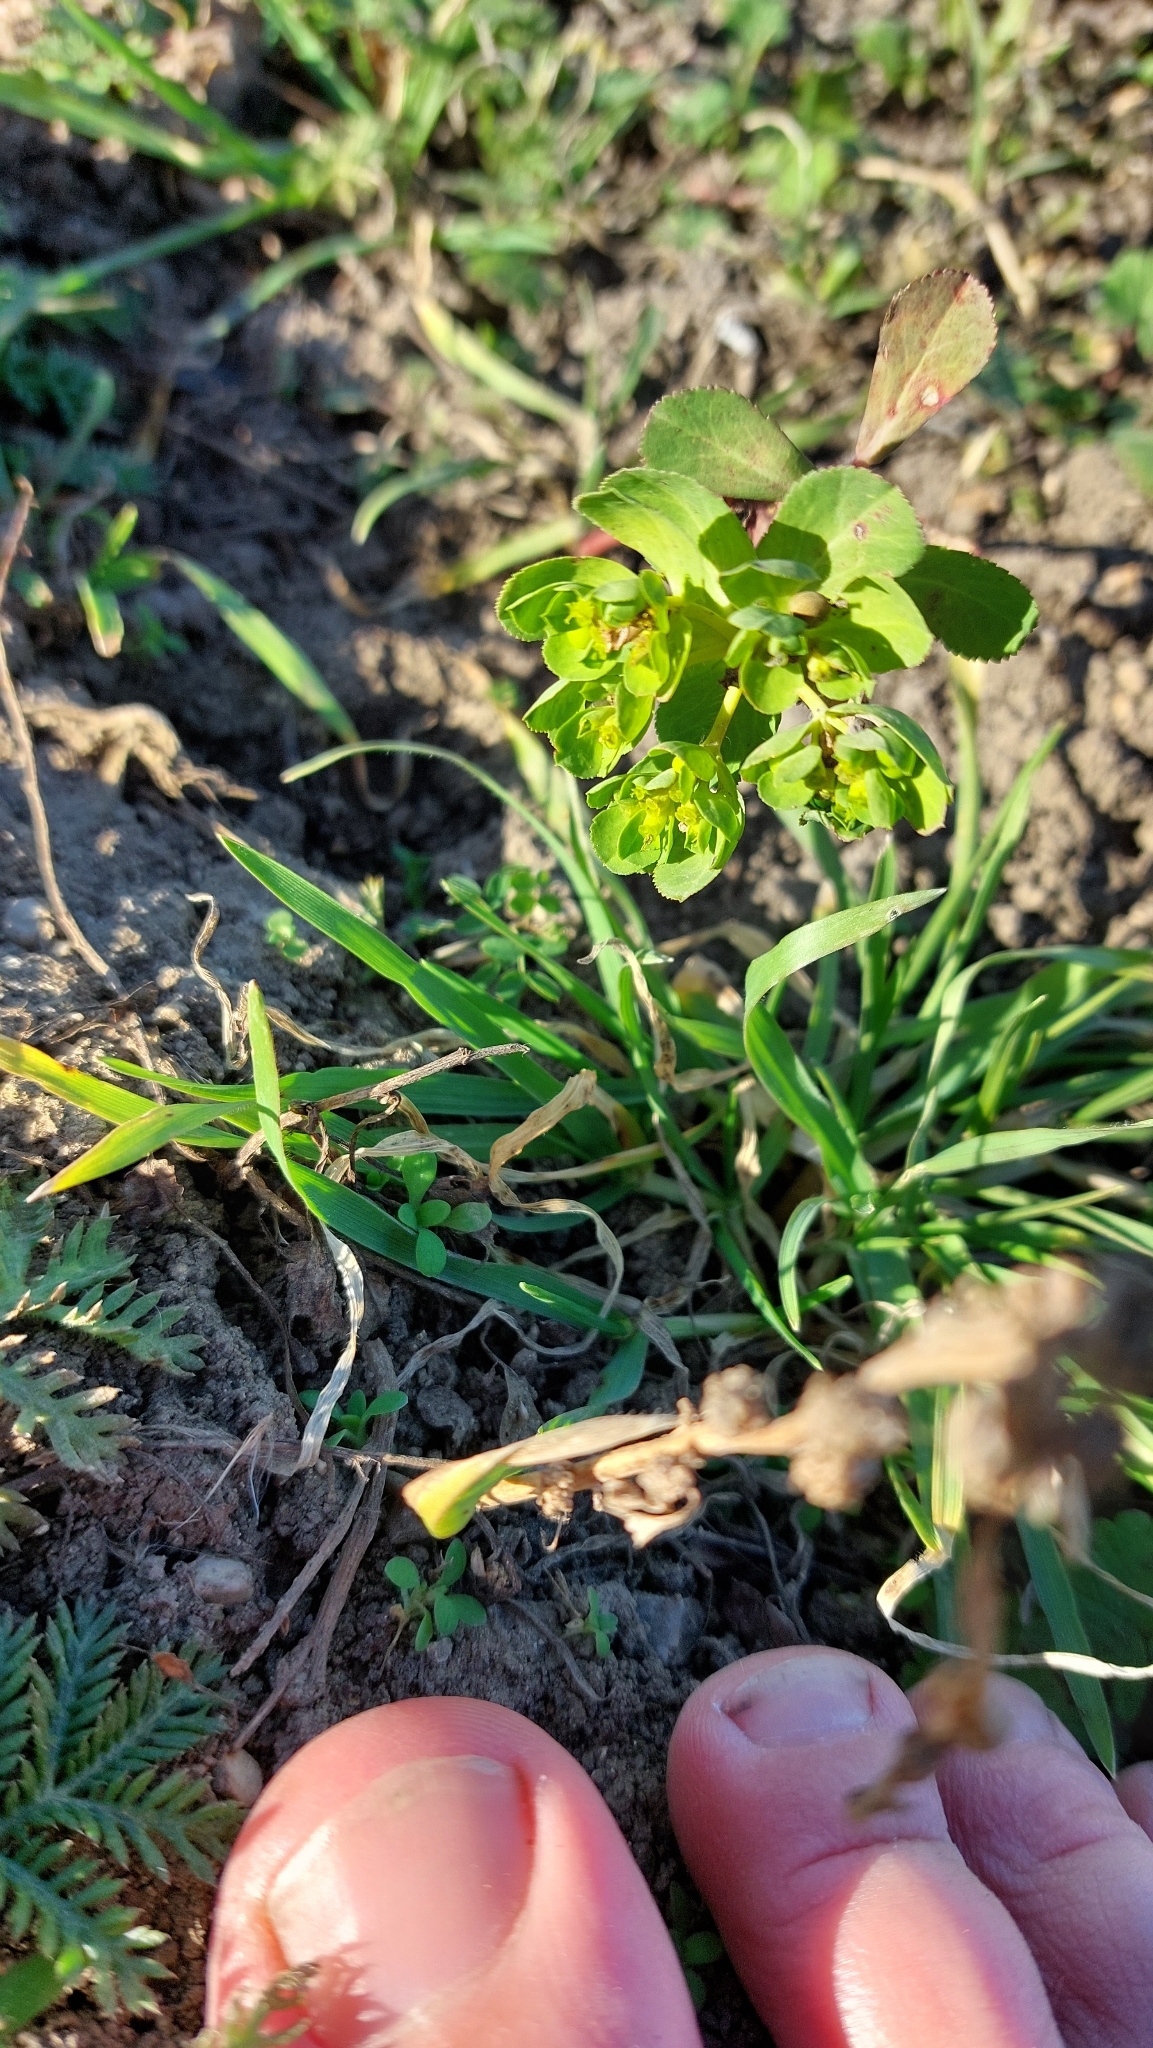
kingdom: Plantae
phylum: Tracheophyta
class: Magnoliopsida
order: Malpighiales
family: Euphorbiaceae
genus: Euphorbia
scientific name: Euphorbia helioscopia
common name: Sun spurge
